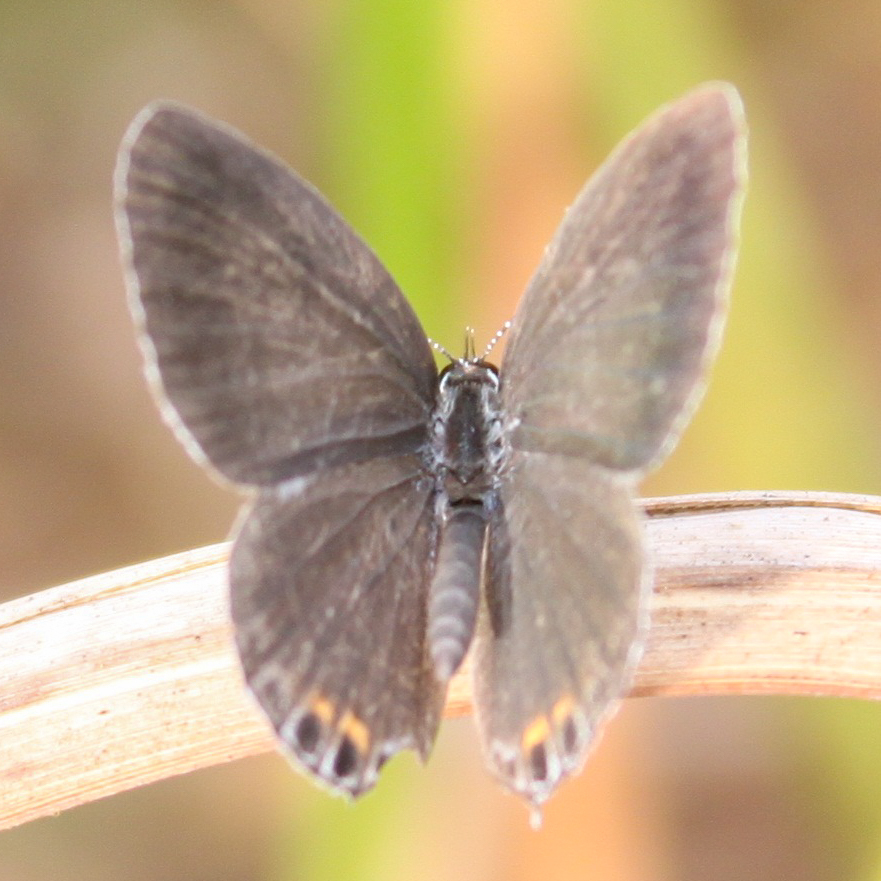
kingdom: Animalia
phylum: Arthropoda
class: Insecta
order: Lepidoptera
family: Lycaenidae
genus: Everes
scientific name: Everes lacturnus
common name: Orange-tipped pea-blue
